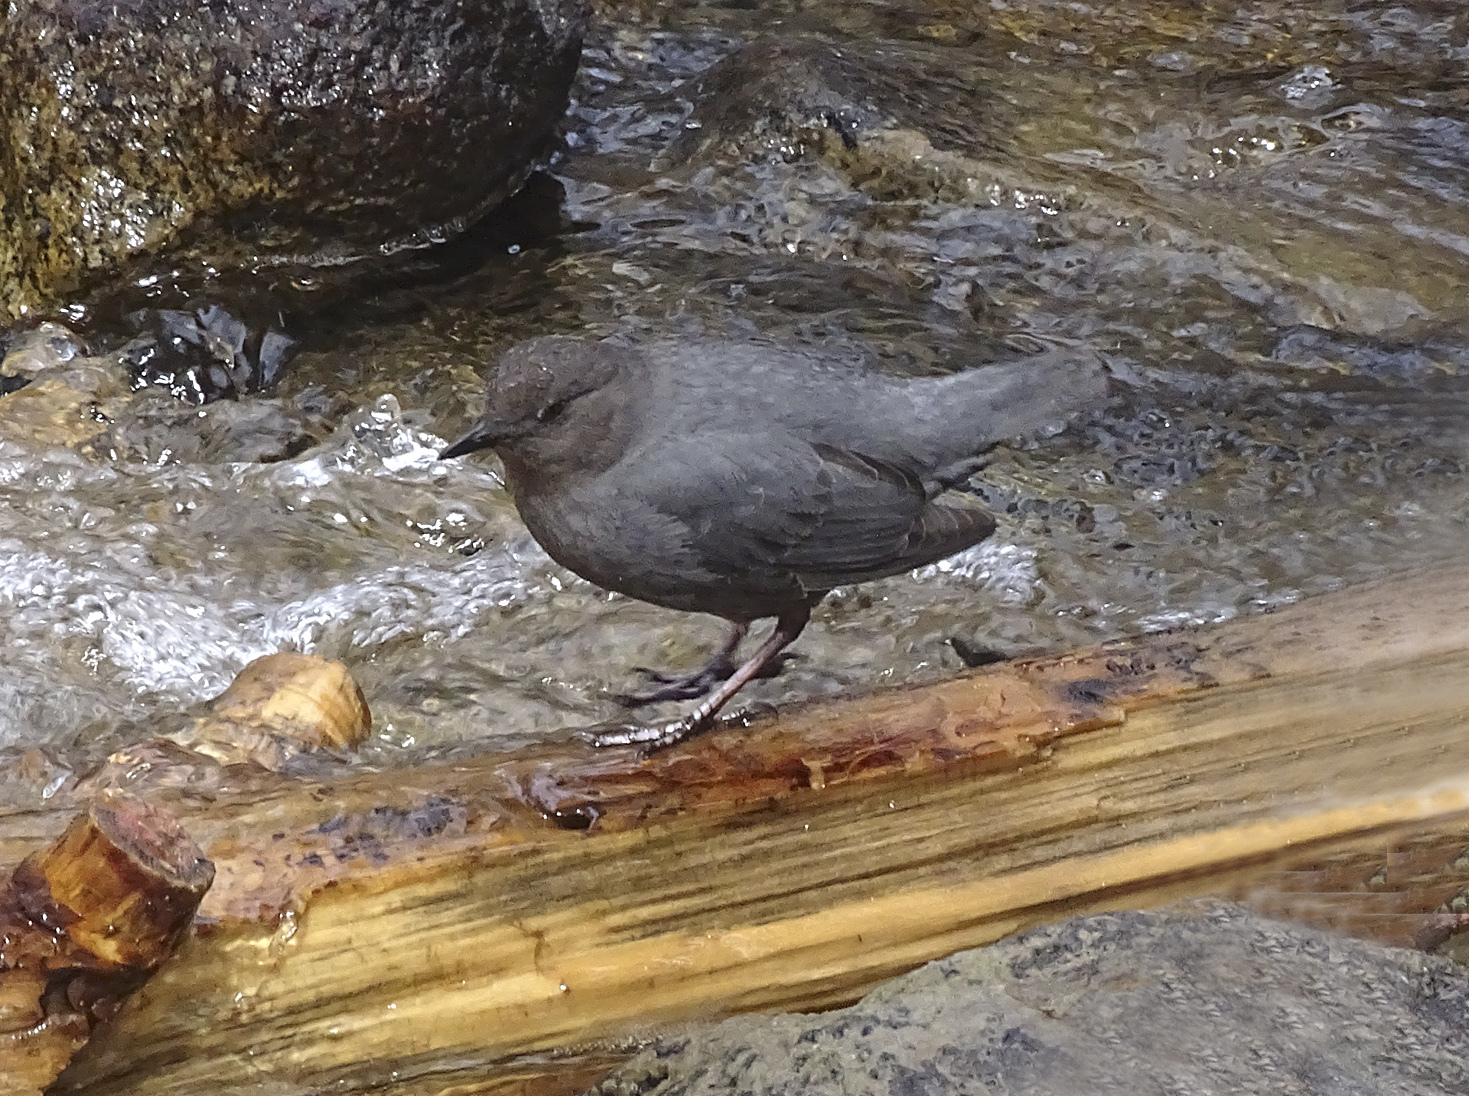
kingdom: Animalia
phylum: Chordata
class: Aves
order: Passeriformes
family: Cinclidae
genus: Cinclus
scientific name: Cinclus mexicanus
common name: American dipper
